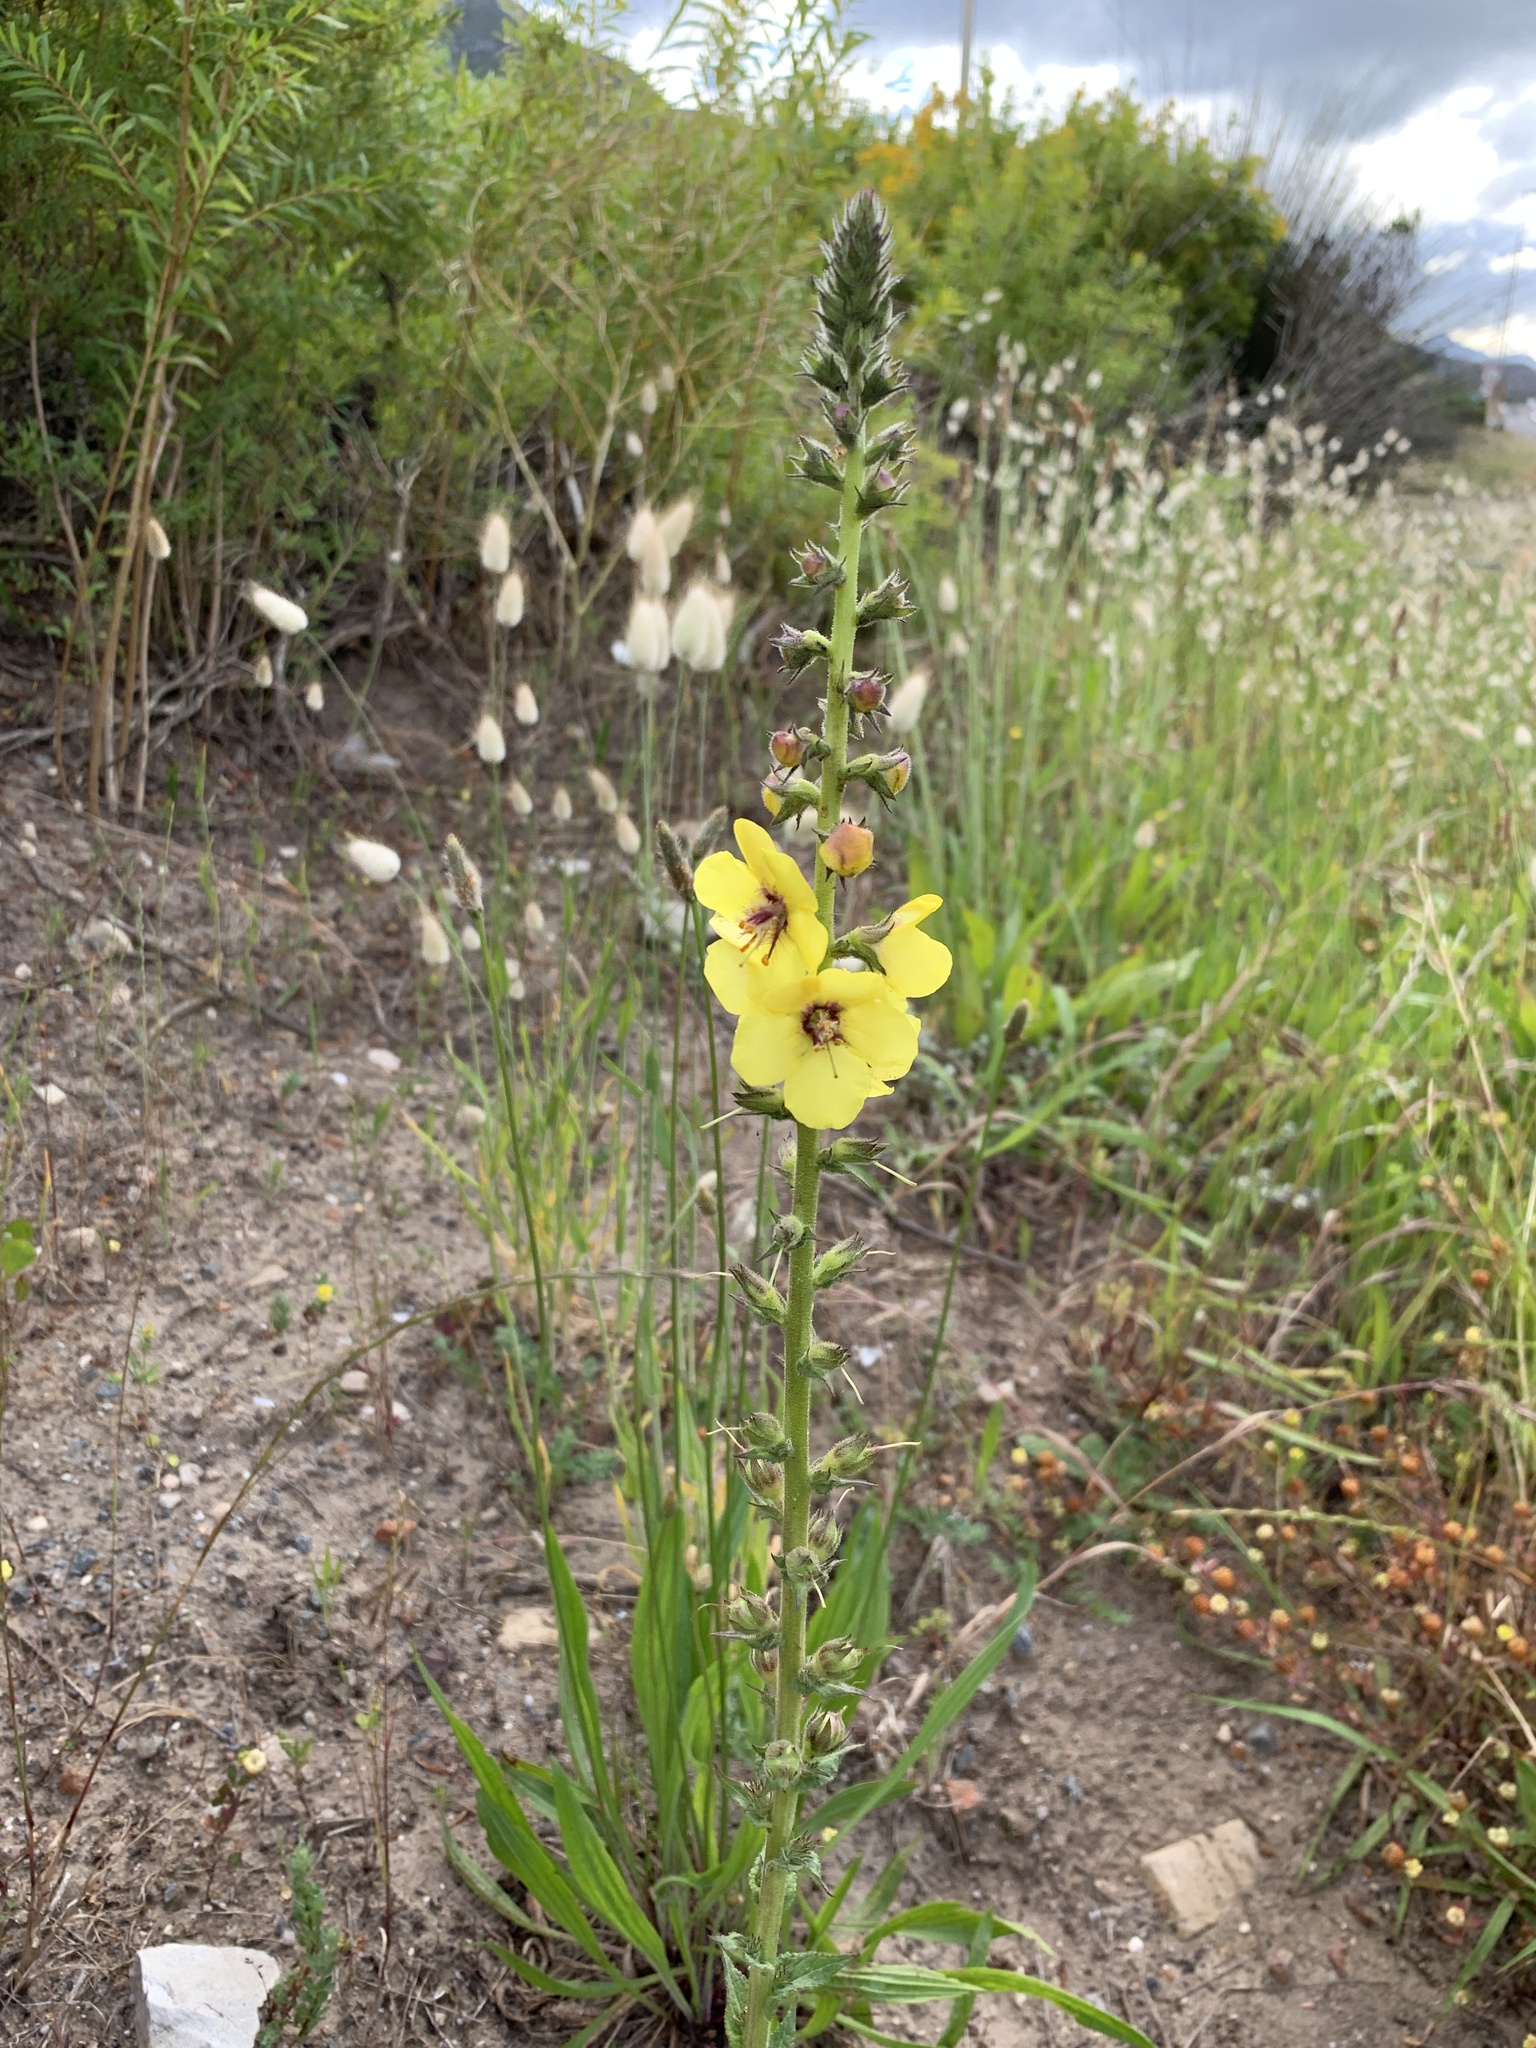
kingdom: Plantae
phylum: Tracheophyta
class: Magnoliopsida
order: Lamiales
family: Scrophulariaceae
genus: Verbascum
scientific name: Verbascum virgatum
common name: Twiggy mullein
